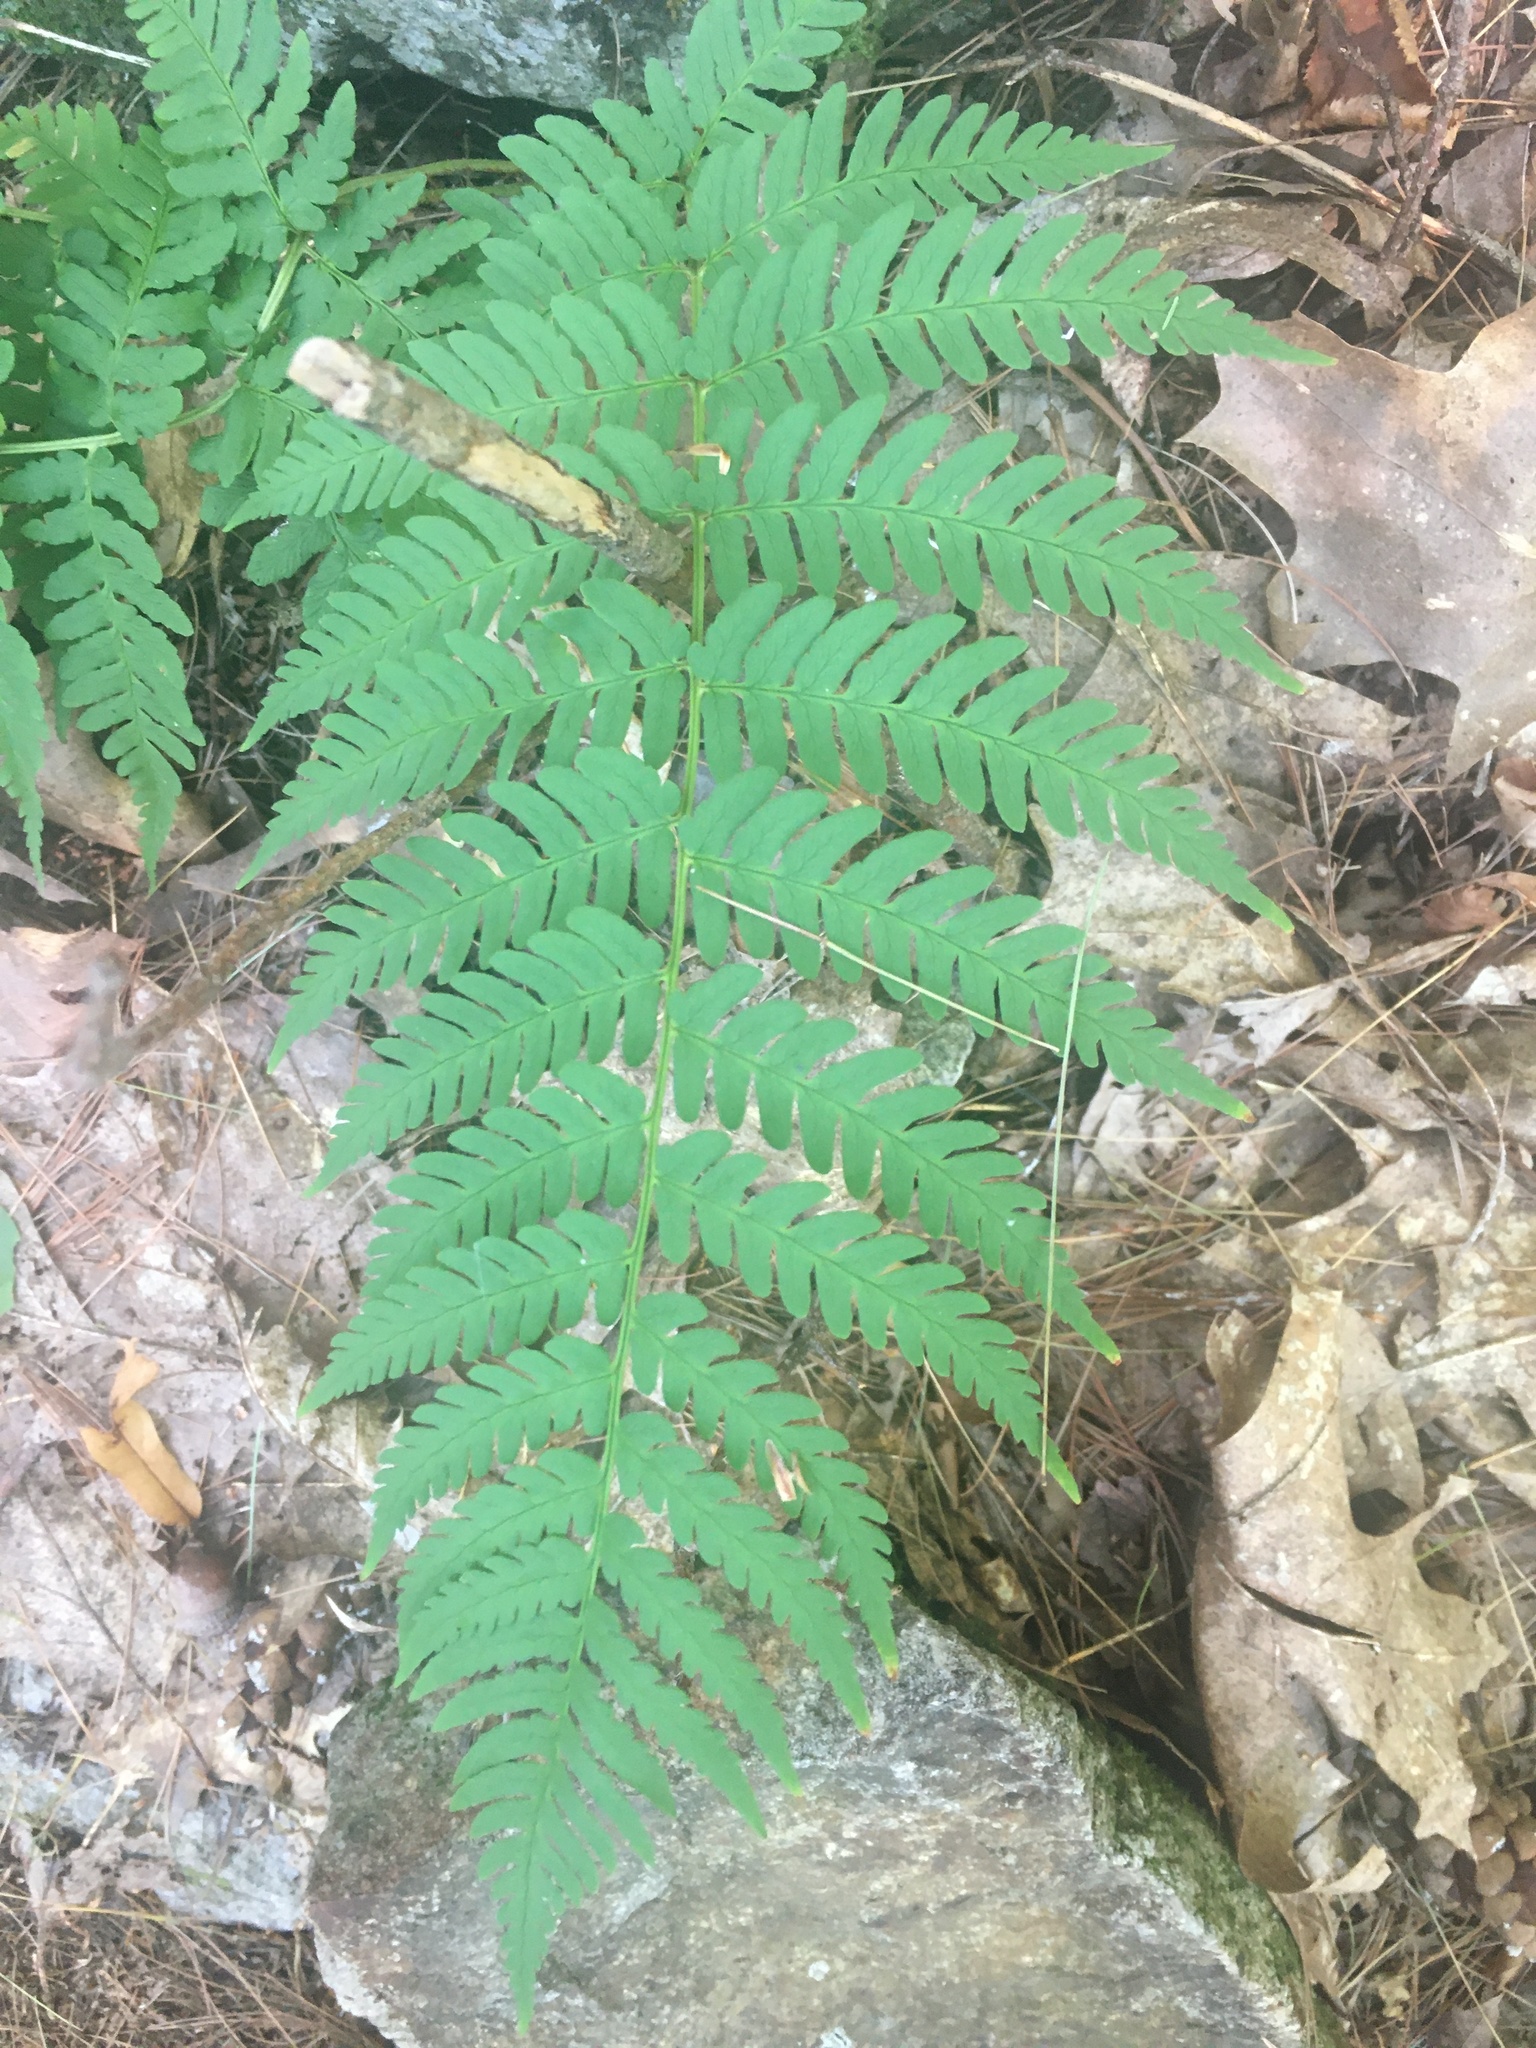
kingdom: Plantae
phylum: Tracheophyta
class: Polypodiopsida
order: Polypodiales
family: Dryopteridaceae
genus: Dryopteris
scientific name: Dryopteris marginalis
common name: Marginal wood fern
